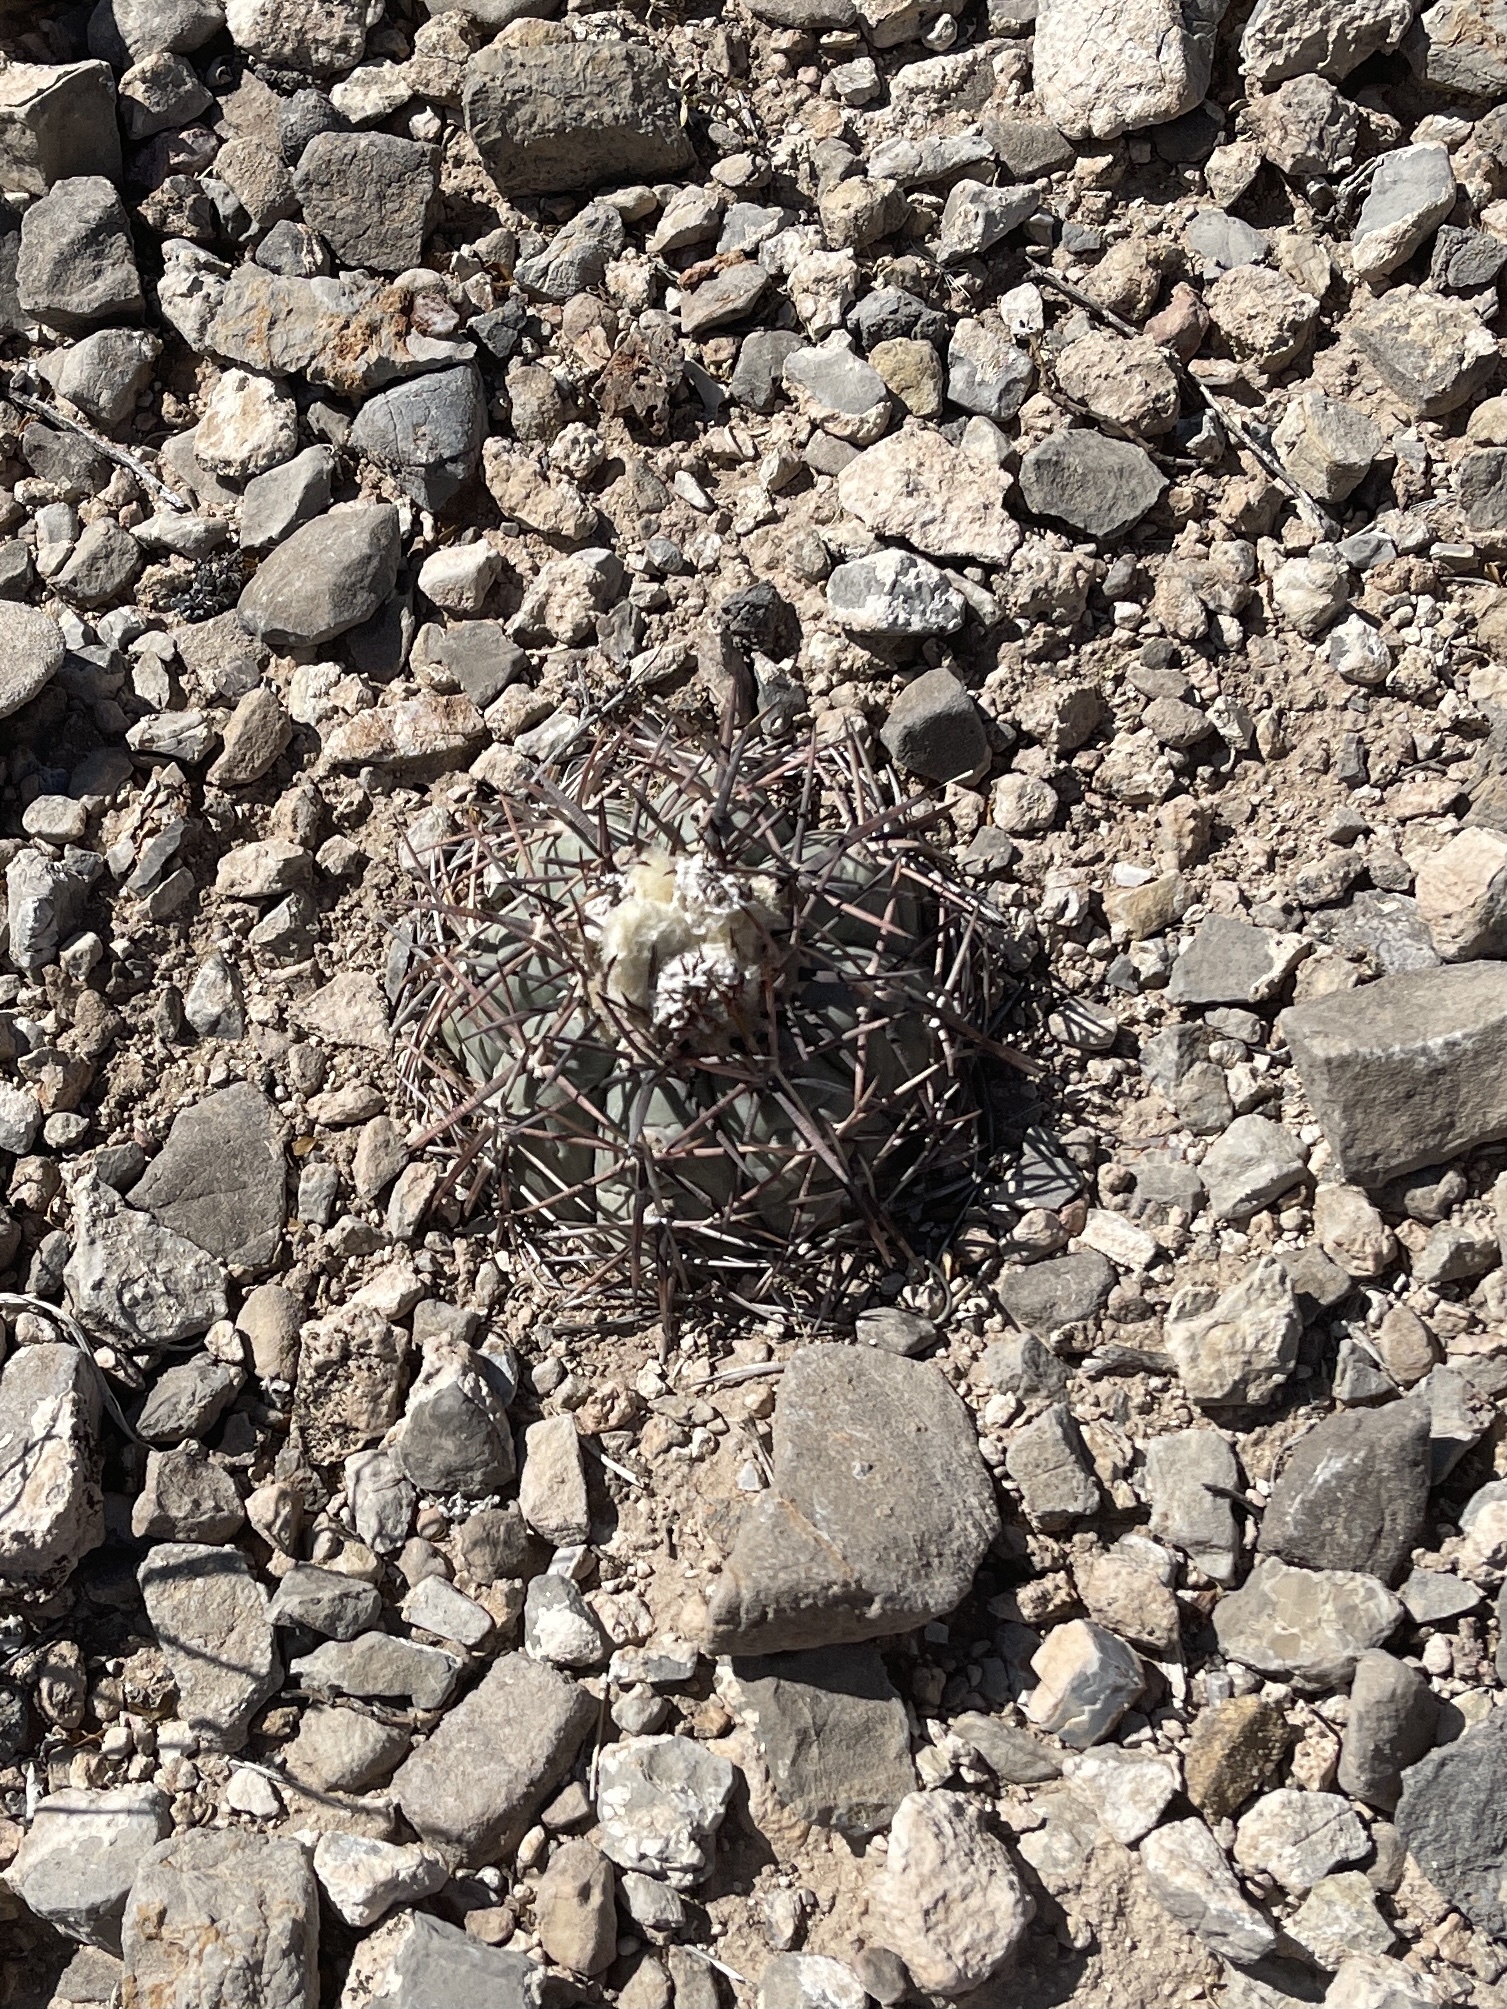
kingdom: Plantae
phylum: Tracheophyta
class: Magnoliopsida
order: Caryophyllales
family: Cactaceae
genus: Echinocactus
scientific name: Echinocactus horizonthalonius
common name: Devilshead
